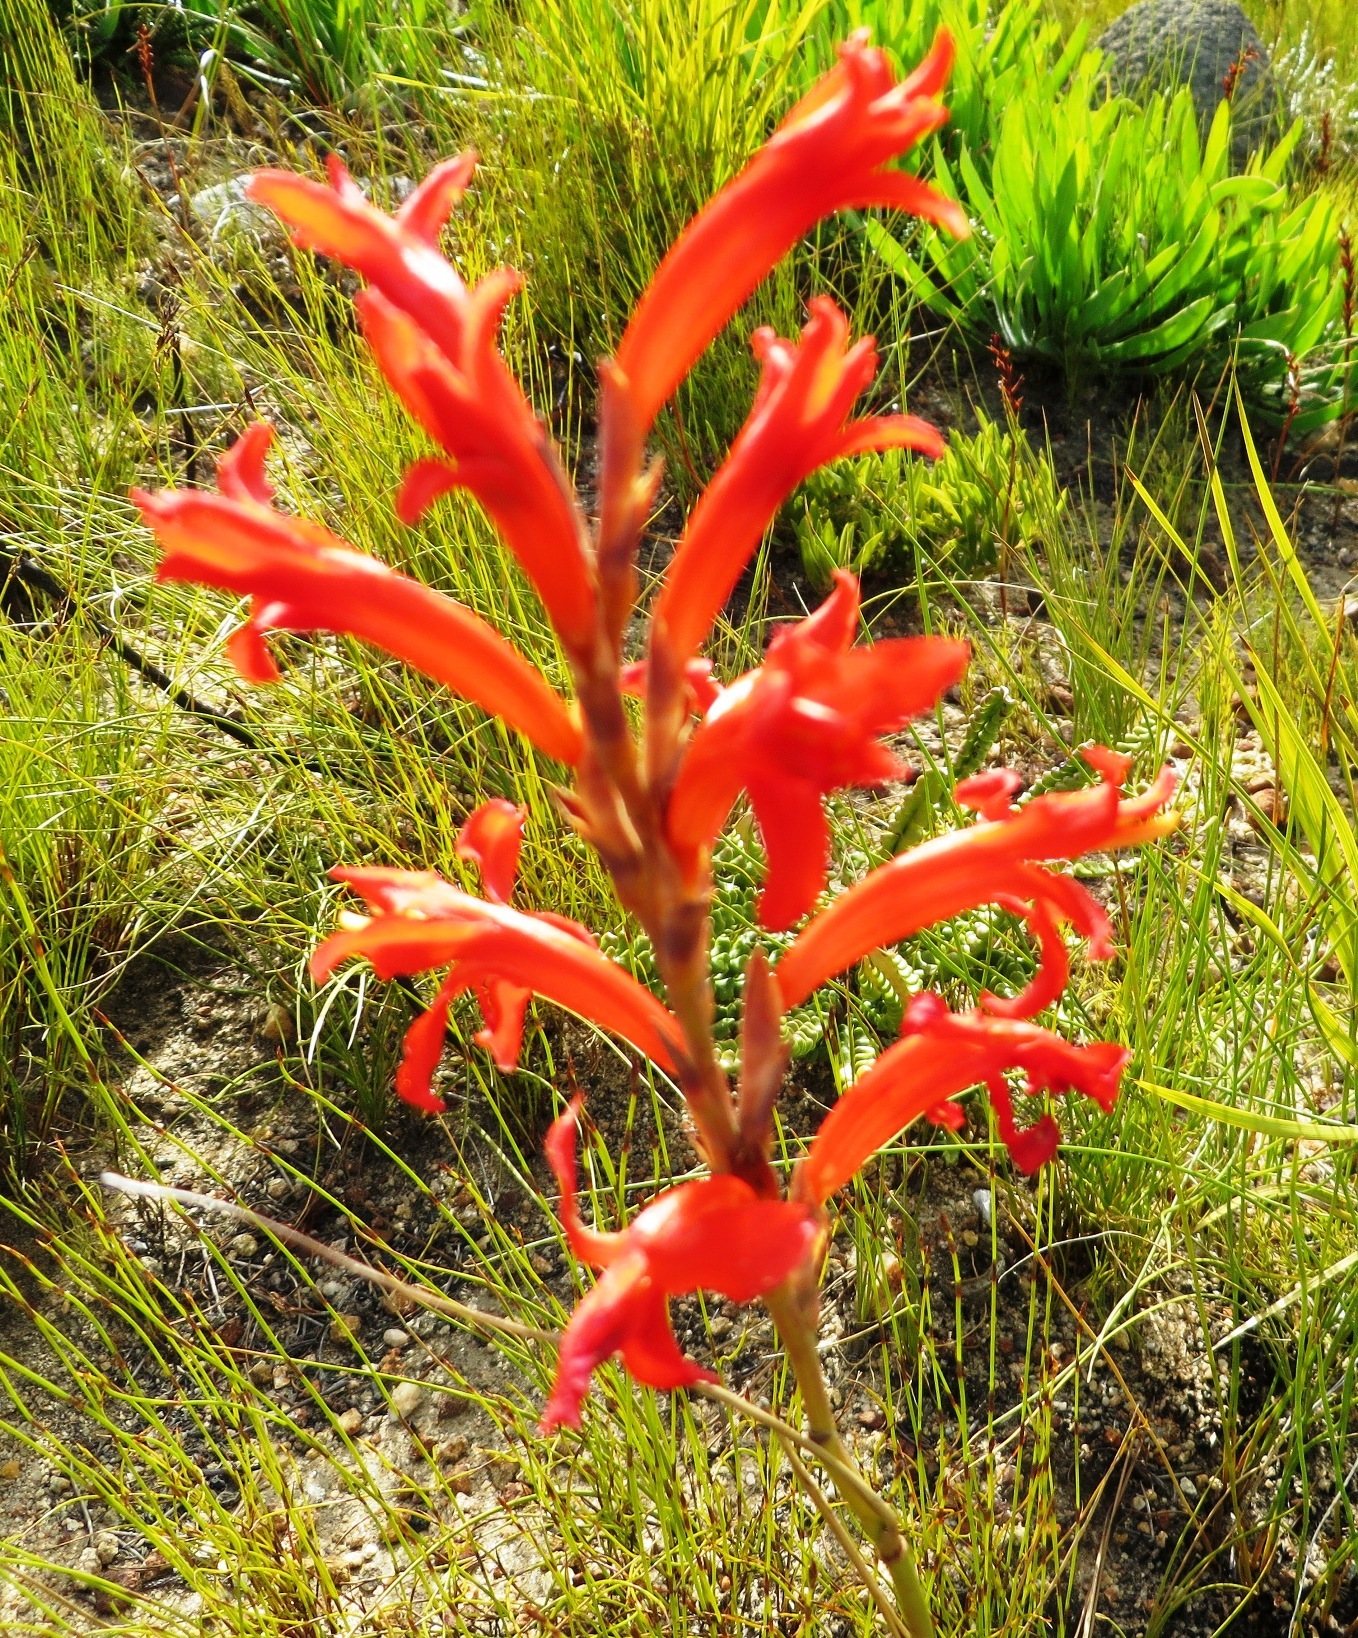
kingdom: Plantae
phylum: Tracheophyta
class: Liliopsida
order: Asparagales
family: Iridaceae
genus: Tritoniopsis
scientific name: Tritoniopsis triticea
